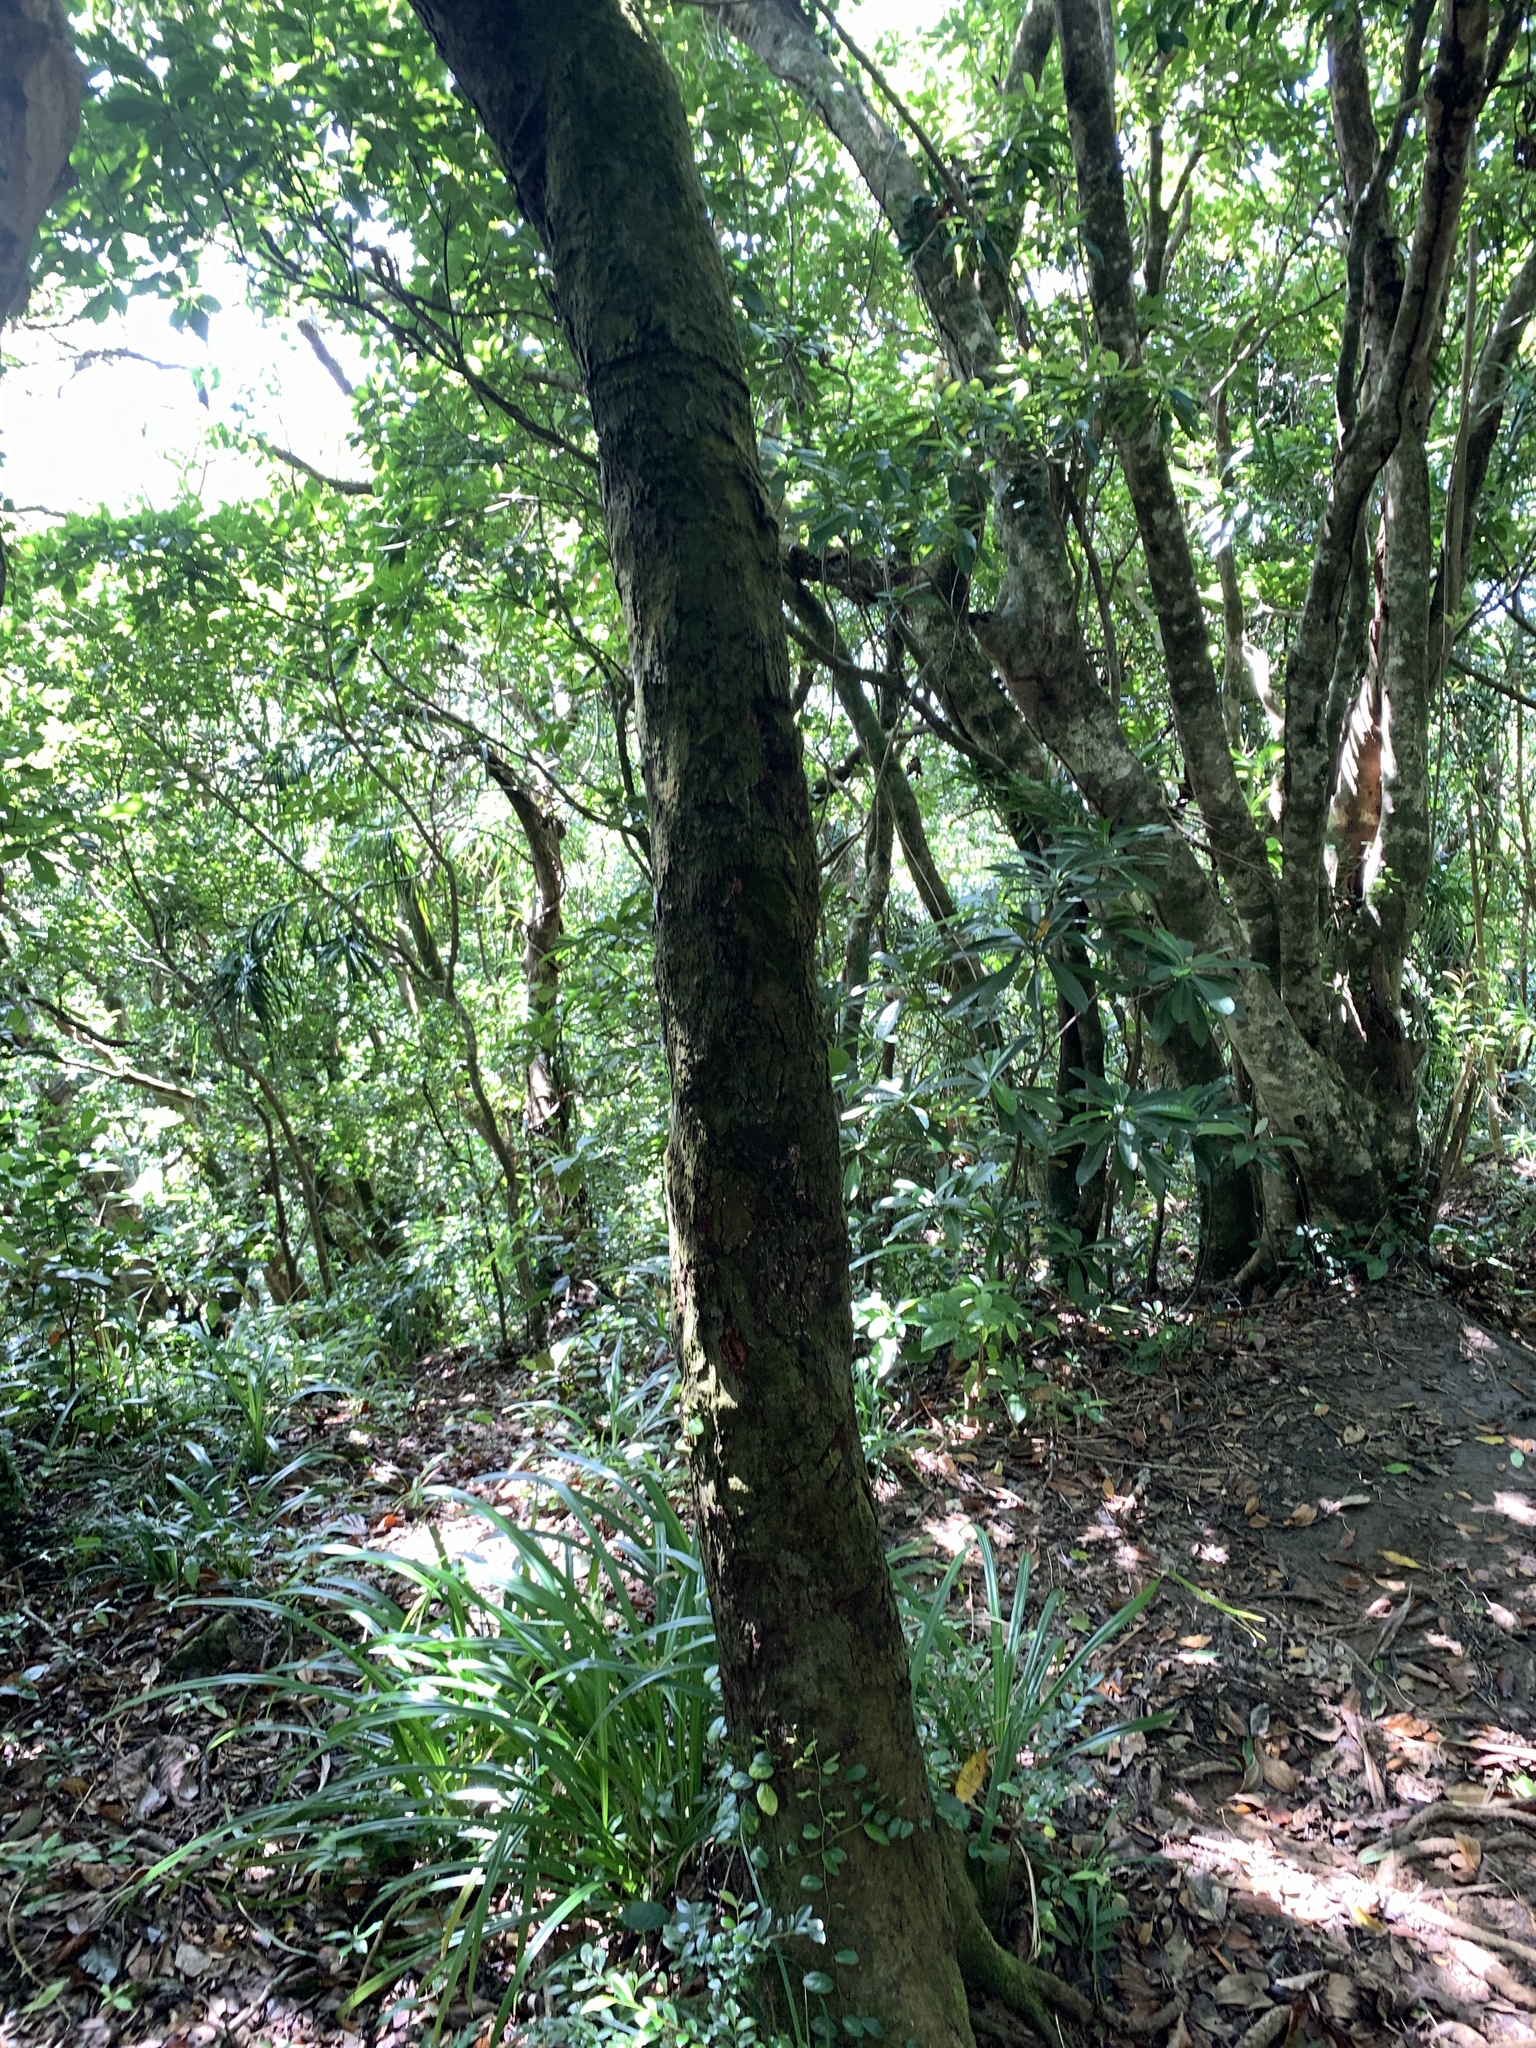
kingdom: Plantae
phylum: Tracheophyta
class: Magnoliopsida
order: Ericales
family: Pentaphylacaceae
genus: Eurya
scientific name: Eurya emarginata
